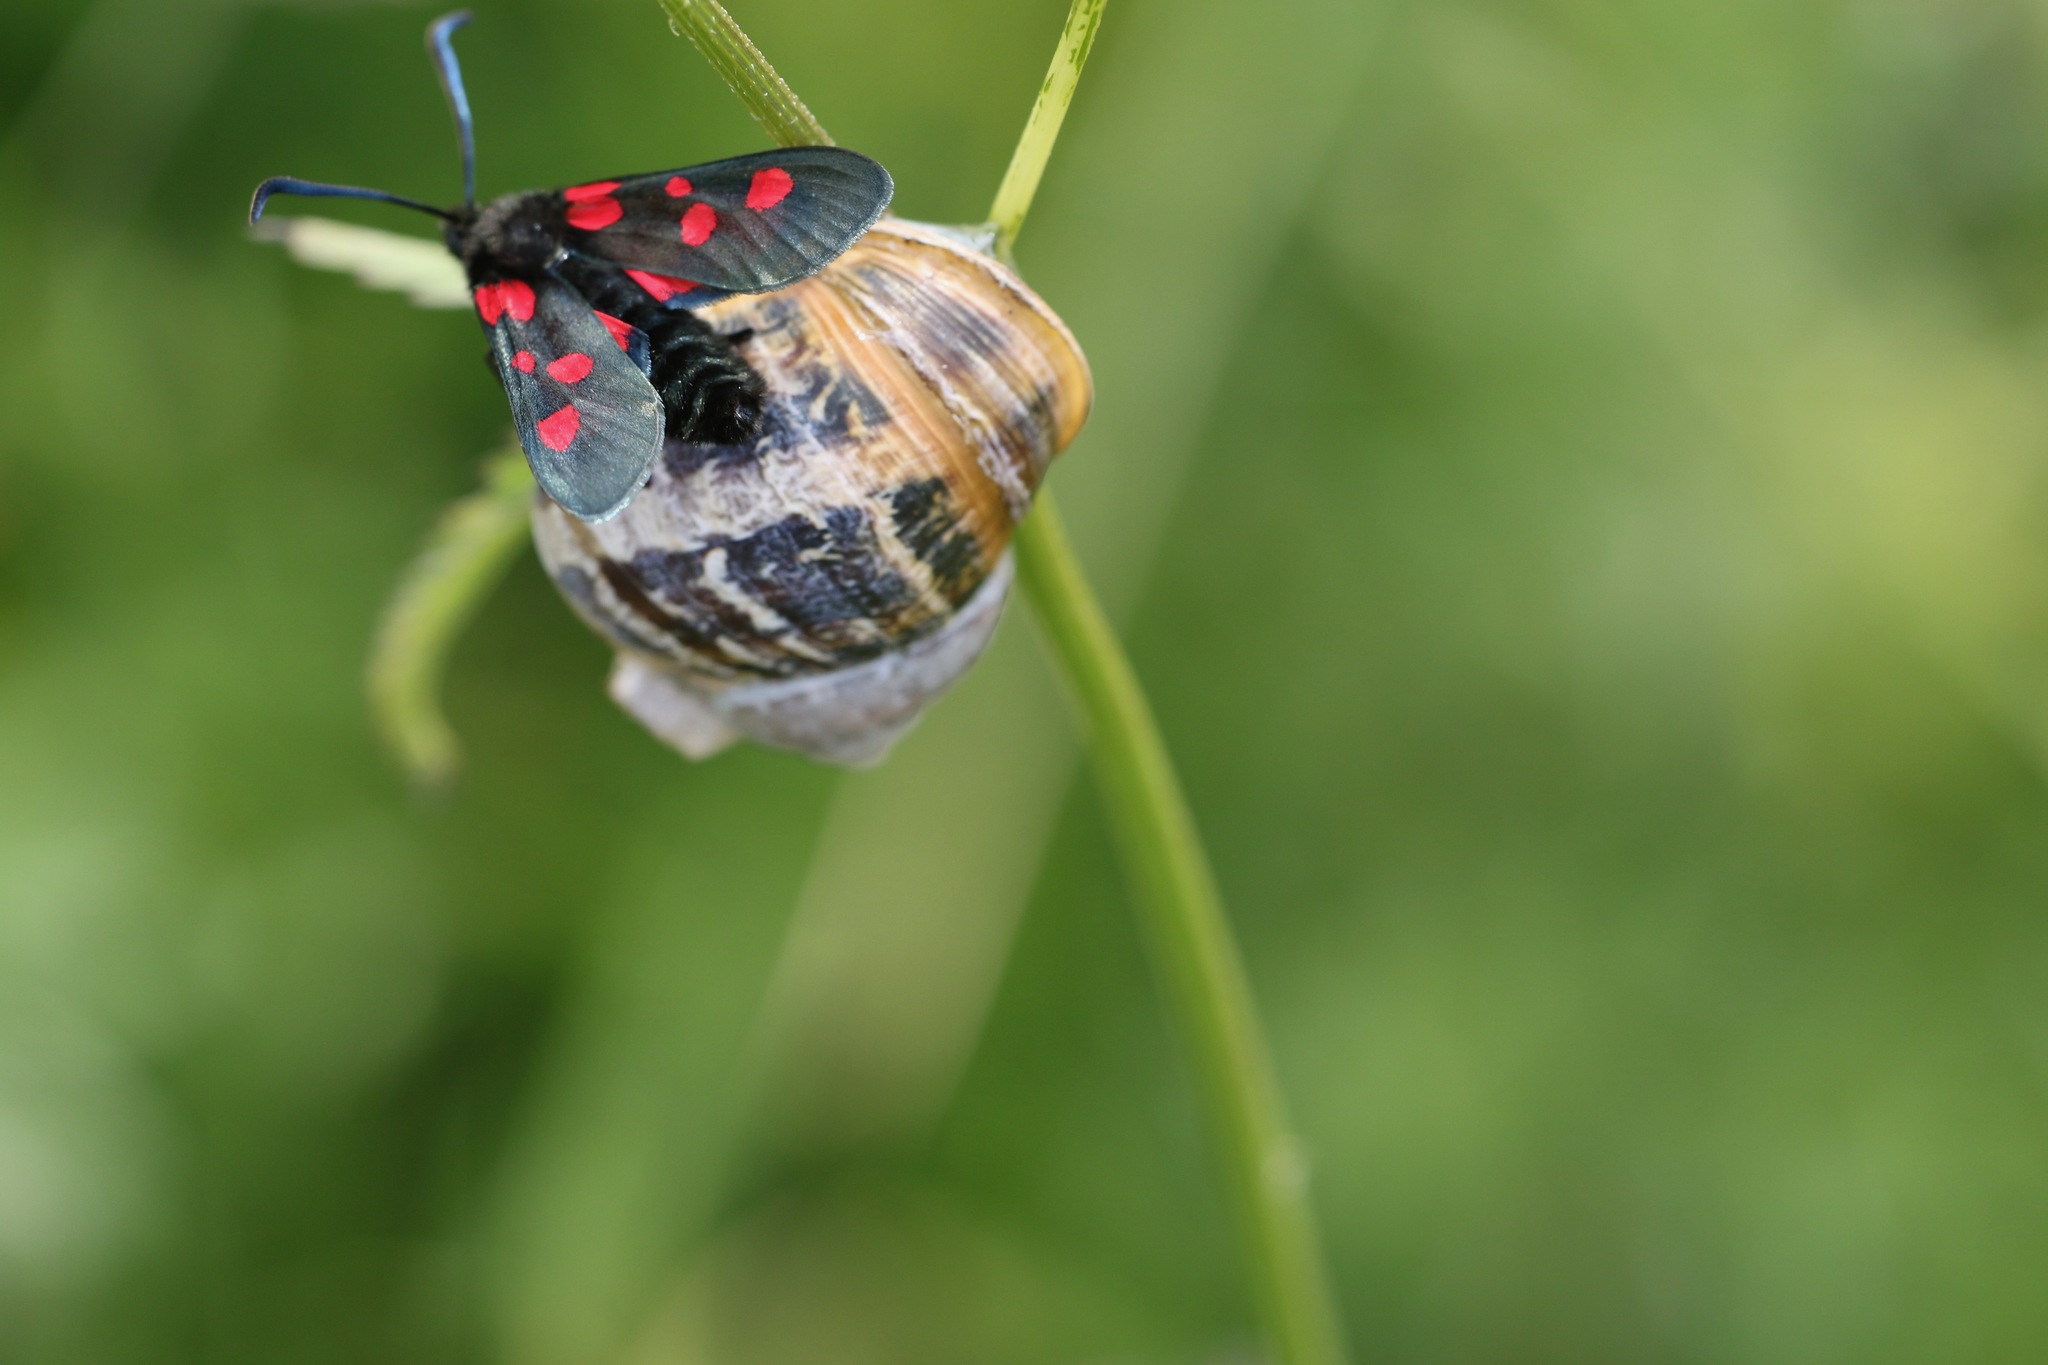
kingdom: Animalia
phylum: Mollusca
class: Gastropoda
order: Stylommatophora
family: Helicidae
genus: Cornu
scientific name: Cornu aspersum
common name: Brown garden snail
